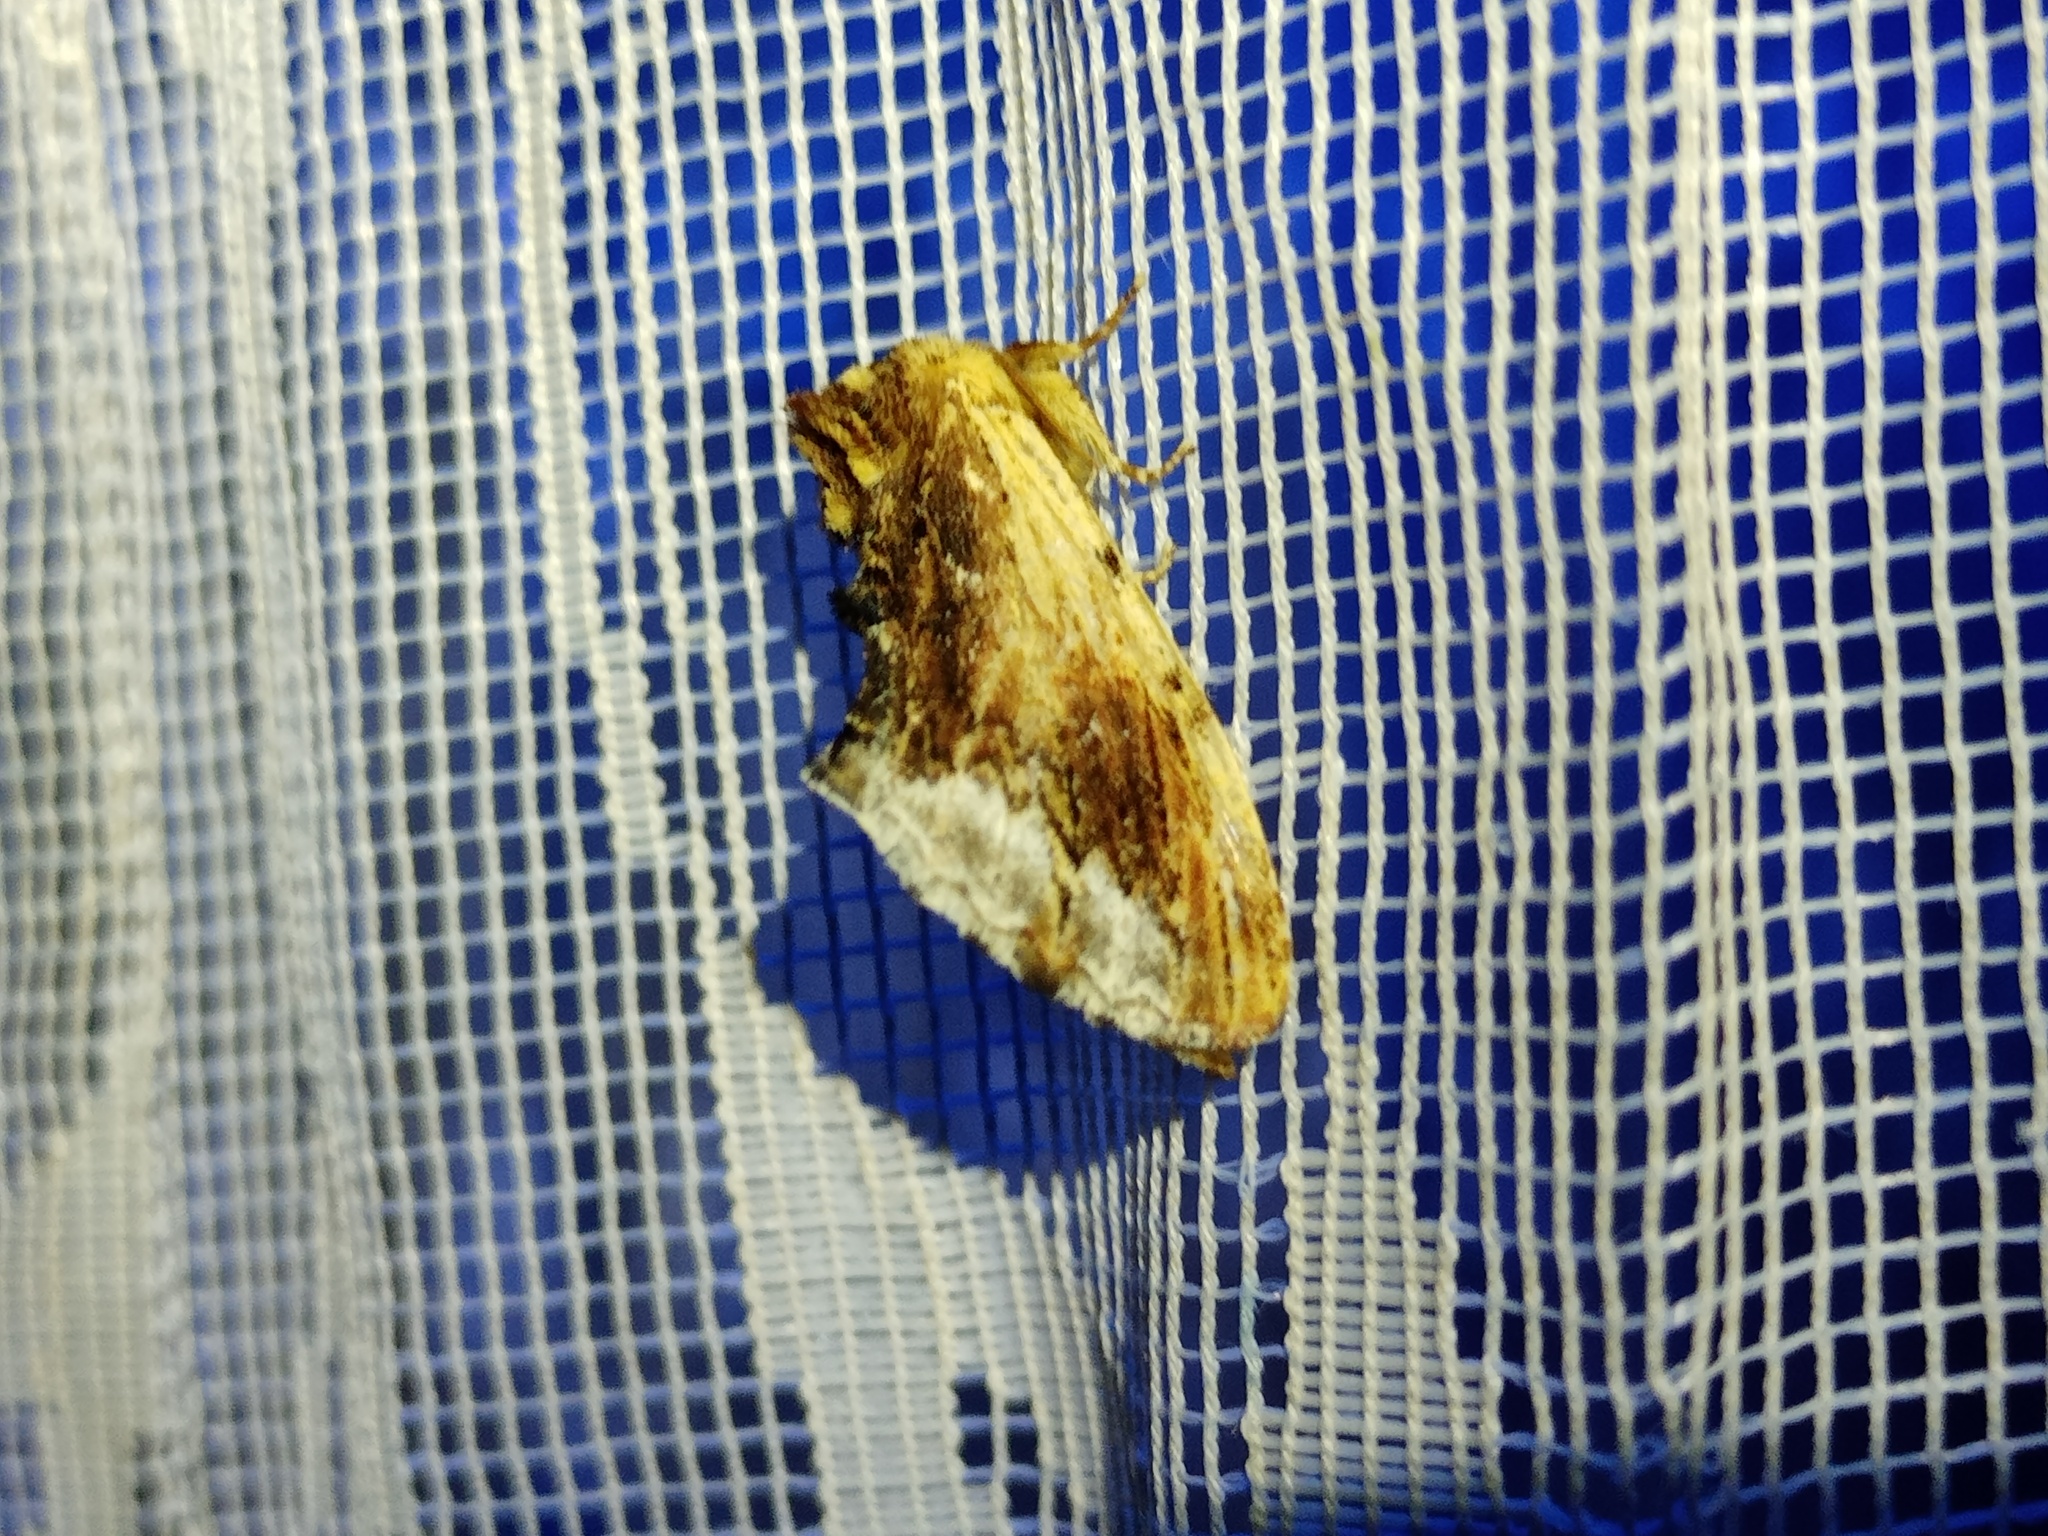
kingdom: Animalia
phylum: Arthropoda
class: Insecta
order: Lepidoptera
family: Notodontidae
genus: Ptilodon
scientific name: Ptilodon cucullina
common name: Maple prominent
